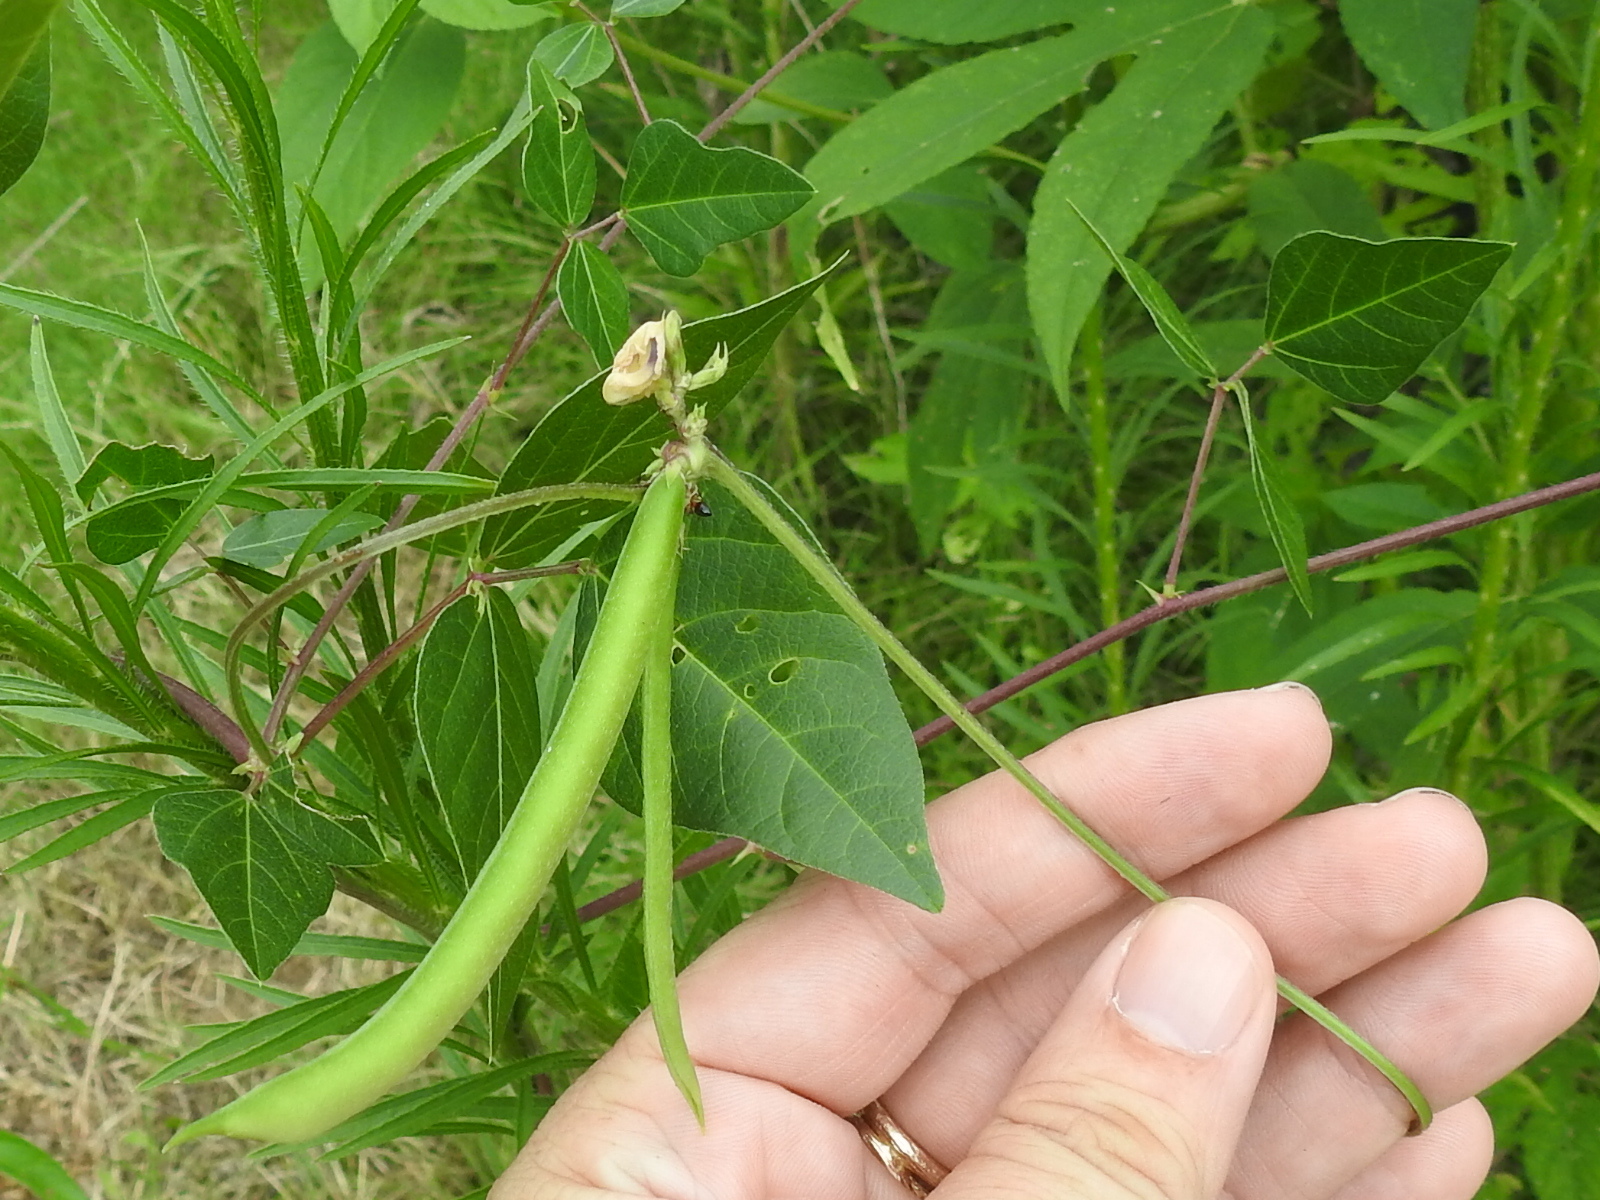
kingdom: Plantae
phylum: Tracheophyta
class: Magnoliopsida
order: Fabales
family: Fabaceae
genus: Strophostyles
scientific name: Strophostyles helvola
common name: Trailing wild bean
